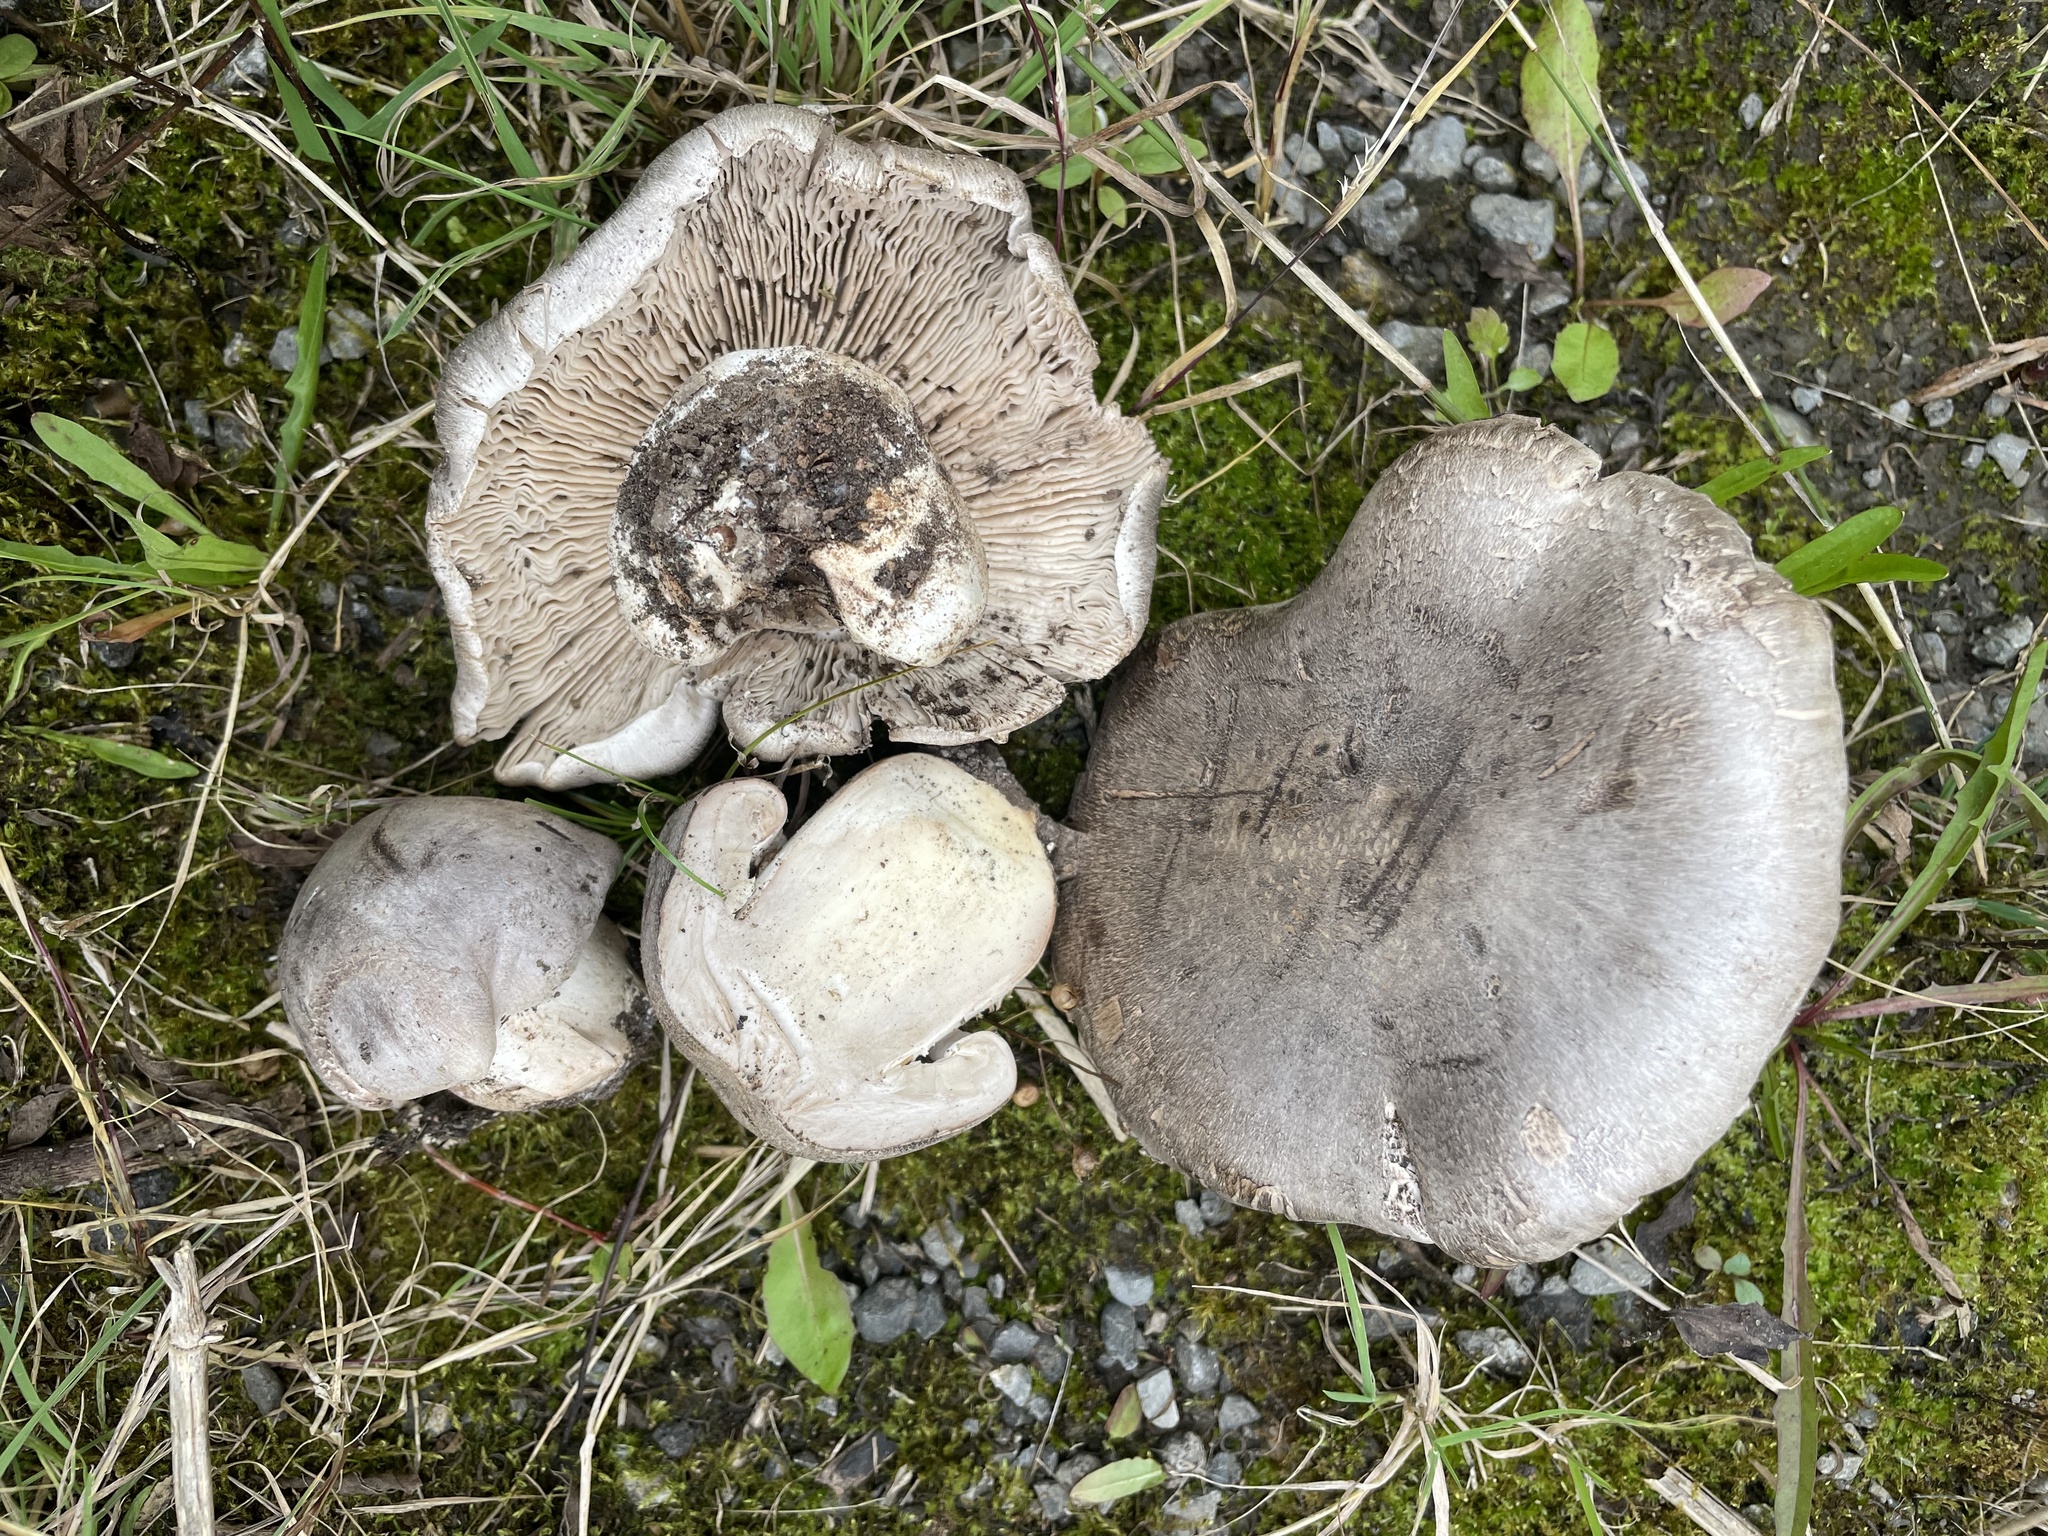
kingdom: Fungi
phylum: Basidiomycota
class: Agaricomycetes
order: Agaricales
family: Tricholomataceae
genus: Tricholoma
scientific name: Tricholoma pullum
